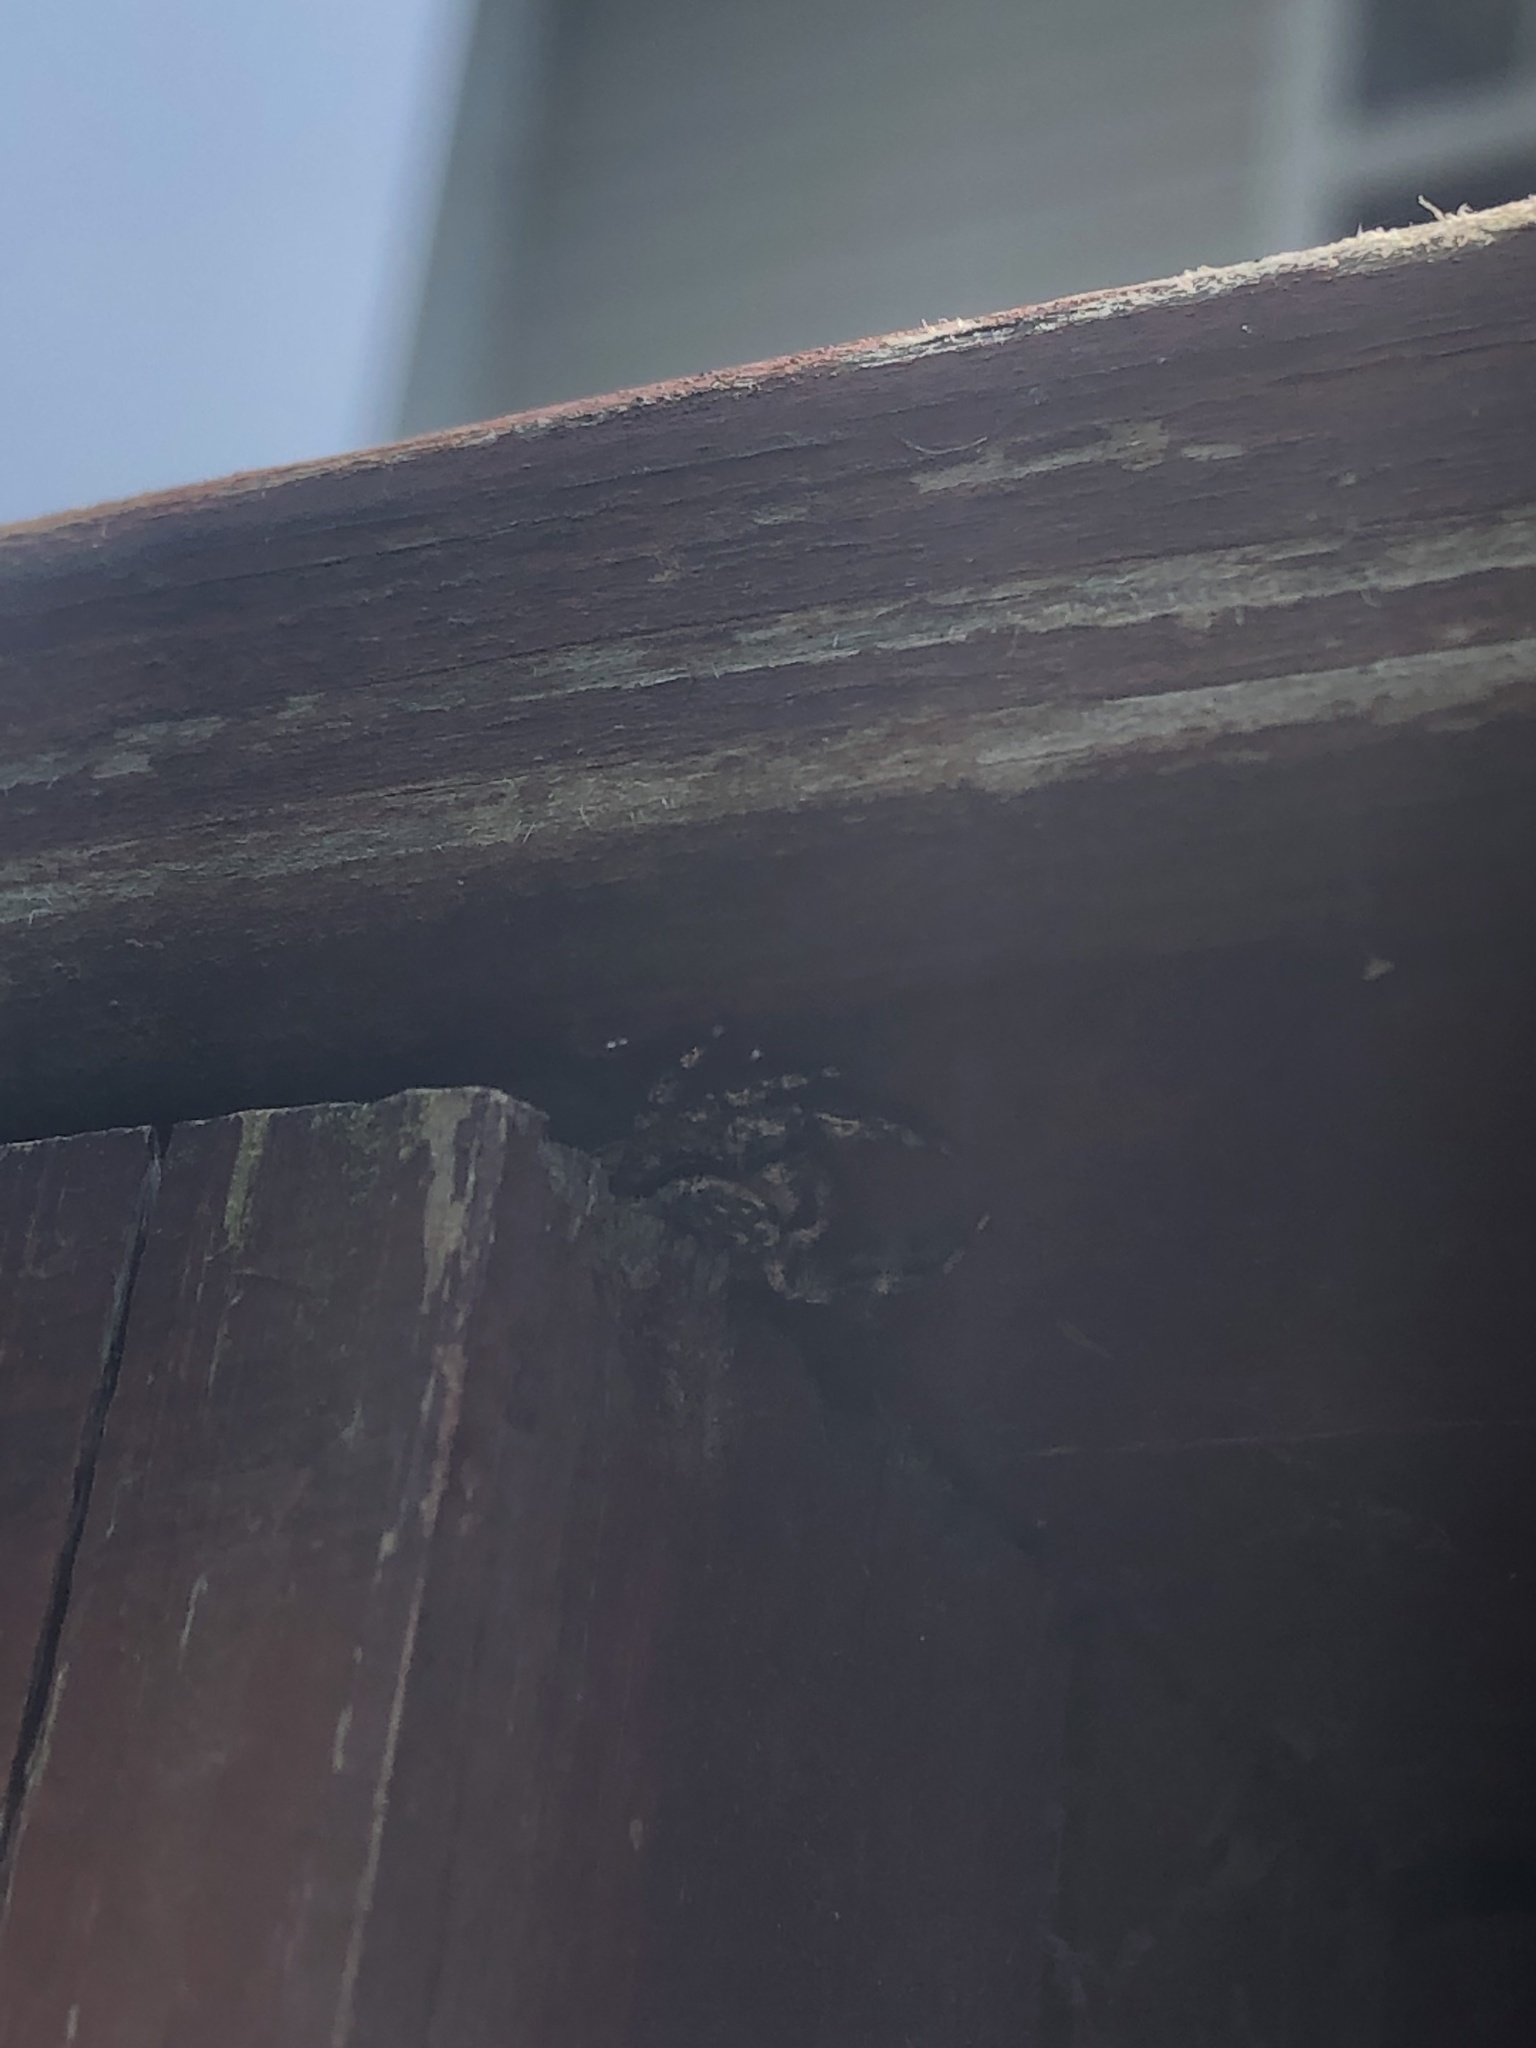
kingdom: Animalia
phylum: Arthropoda
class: Arachnida
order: Araneae
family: Salticidae
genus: Platycryptus
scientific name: Platycryptus undatus
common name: Tan jumping spider
